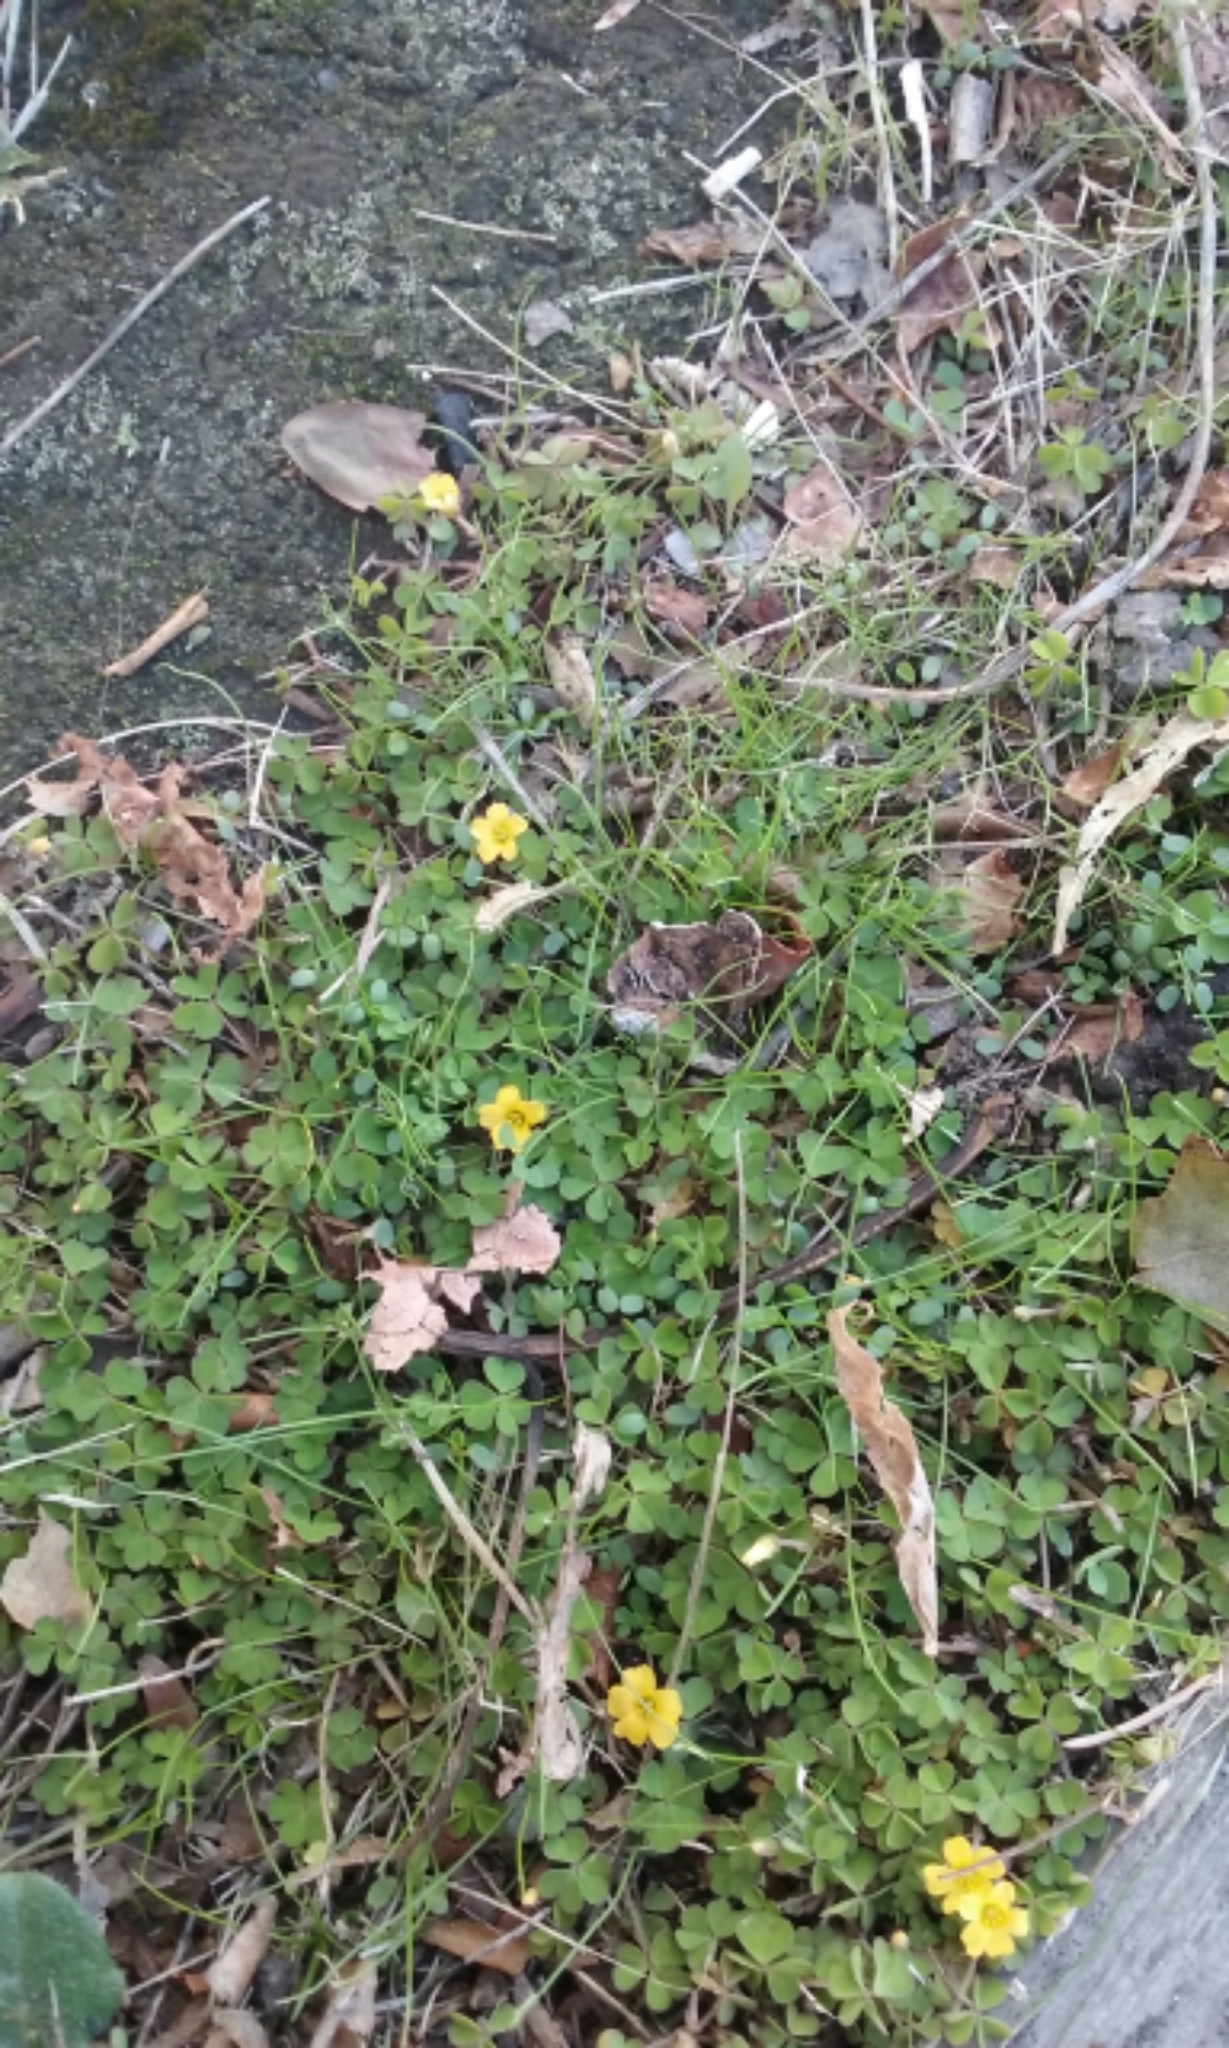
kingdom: Plantae
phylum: Tracheophyta
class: Magnoliopsida
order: Oxalidales
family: Oxalidaceae
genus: Oxalis
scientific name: Oxalis exilis
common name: Least yellow-sorrel
